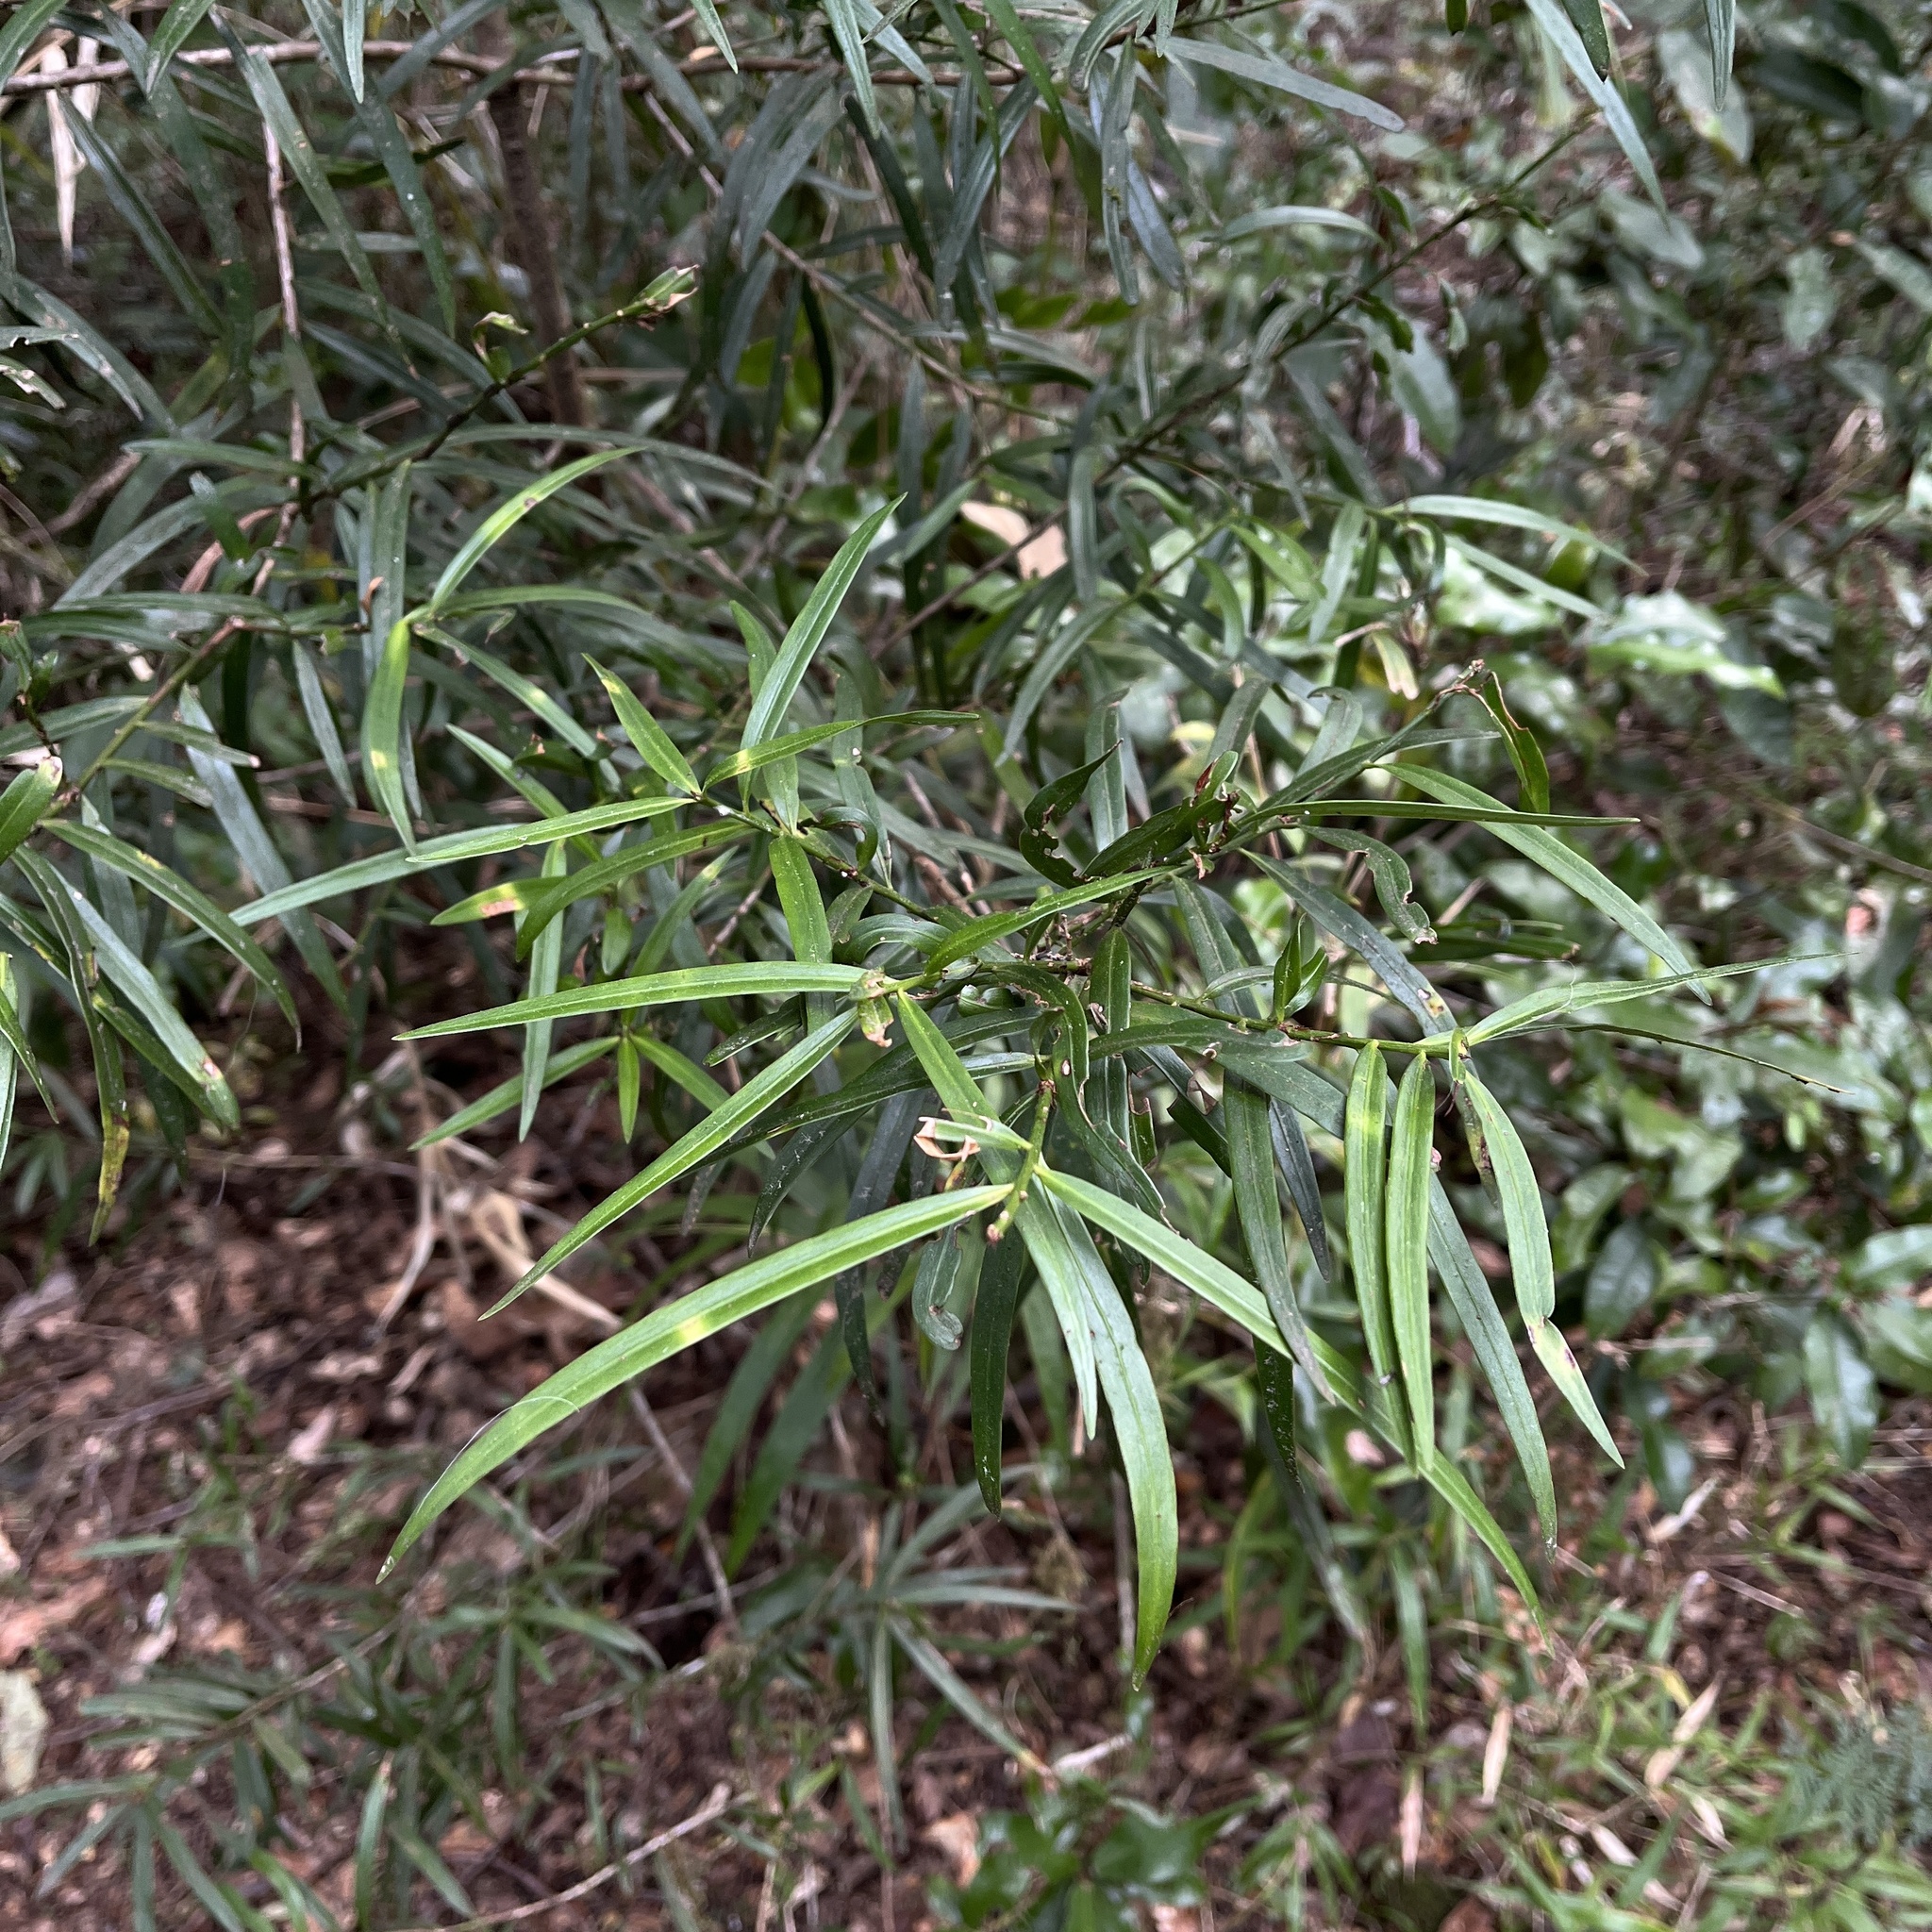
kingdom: Plantae
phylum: Tracheophyta
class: Pinopsida
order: Pinales
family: Podocarpaceae
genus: Podocarpus
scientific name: Podocarpus salignus
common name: Willow-leaf podocarp
